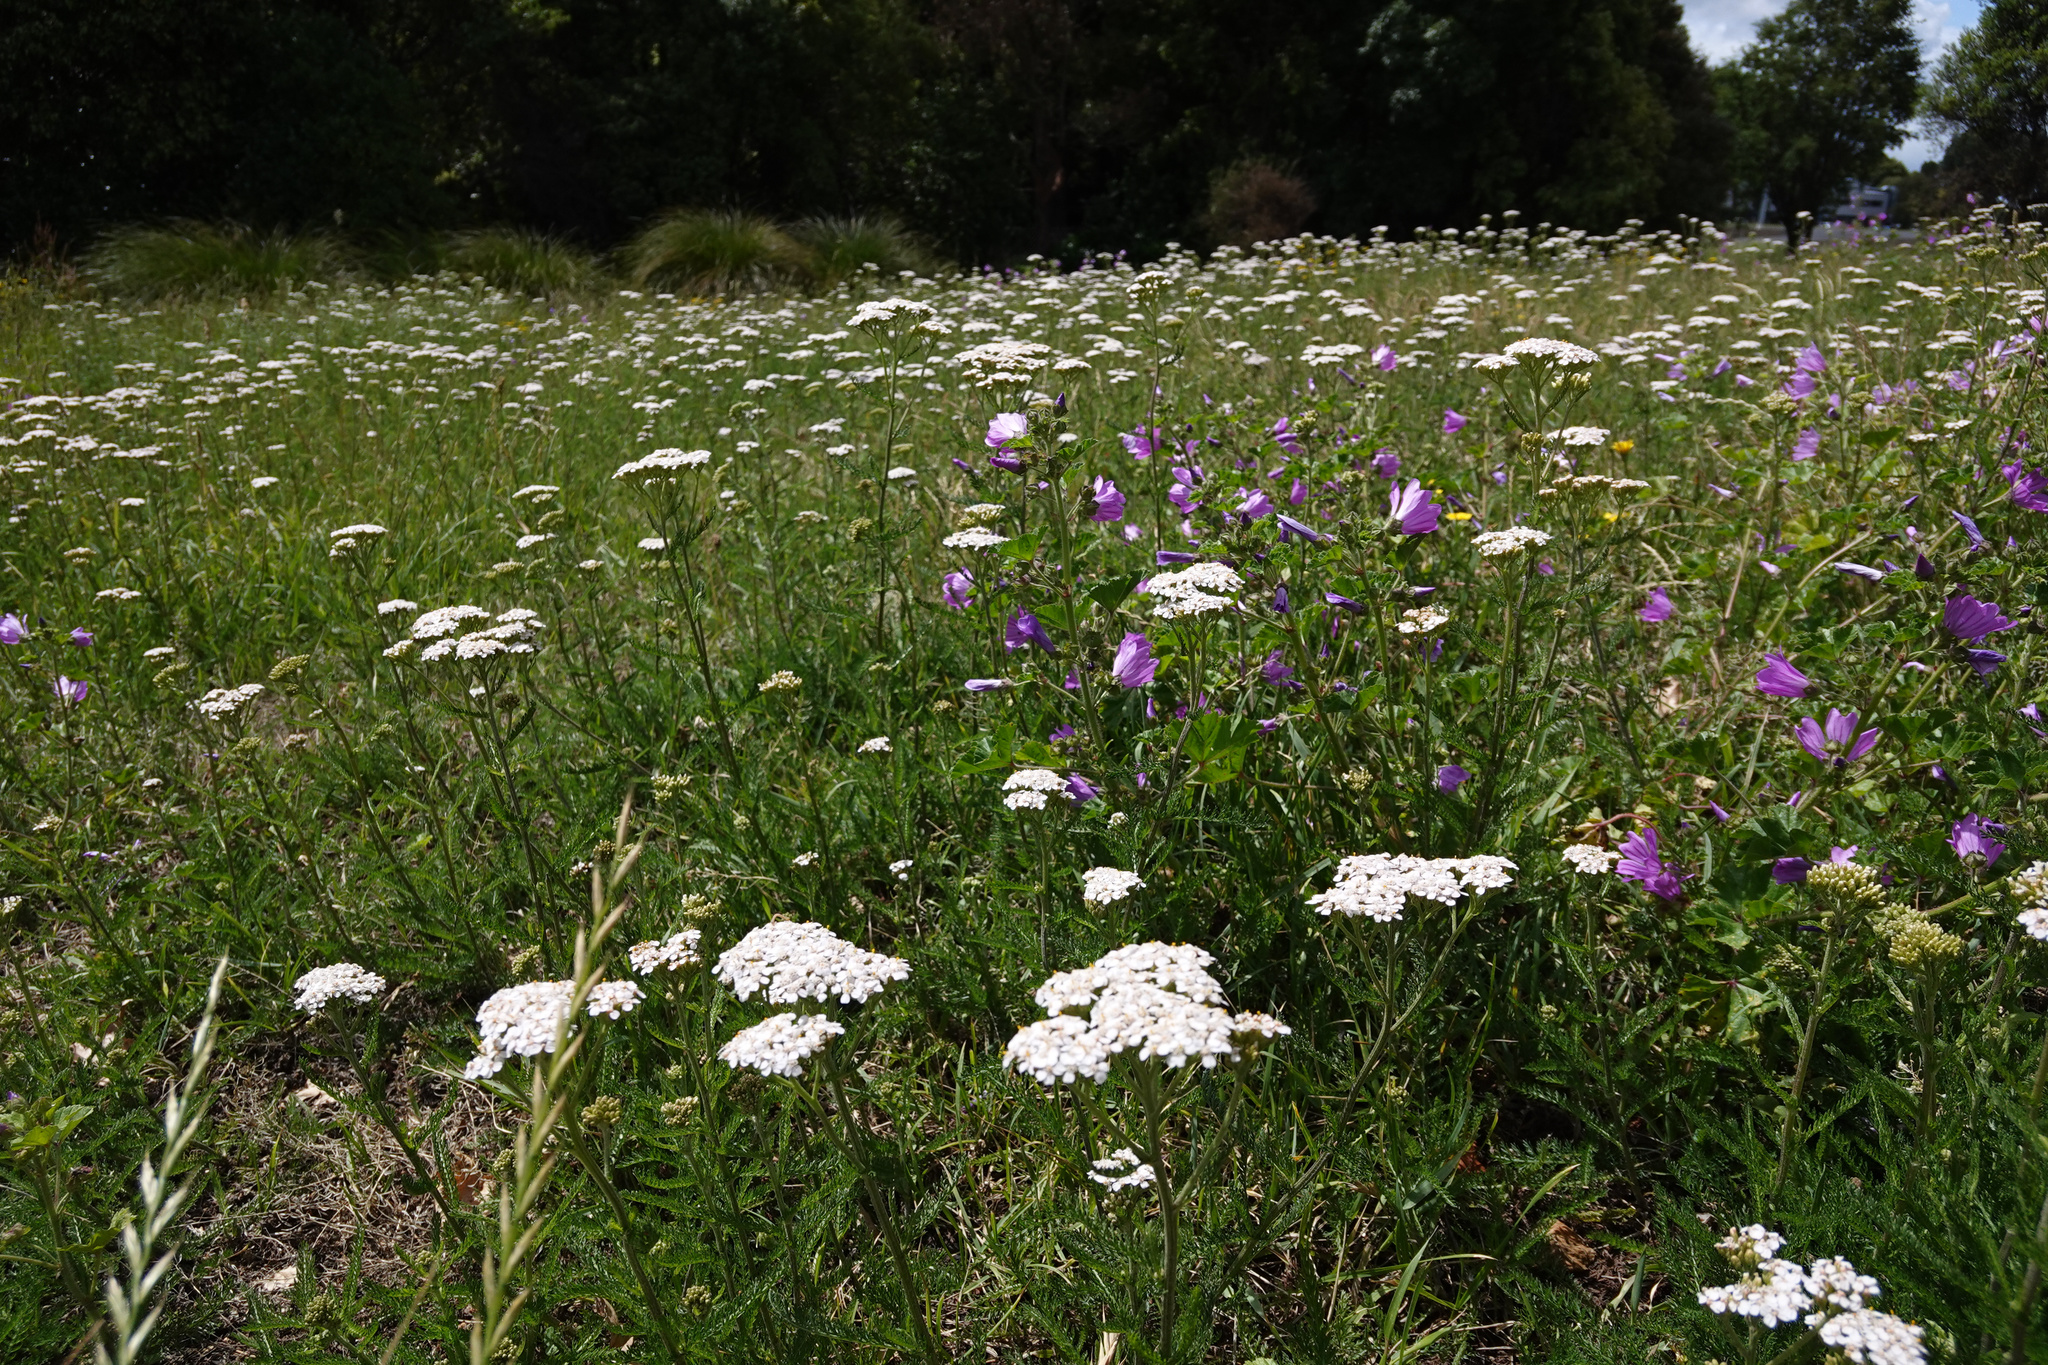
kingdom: Plantae
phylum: Tracheophyta
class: Magnoliopsida
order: Asterales
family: Asteraceae
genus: Achillea
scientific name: Achillea millefolium
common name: Yarrow
